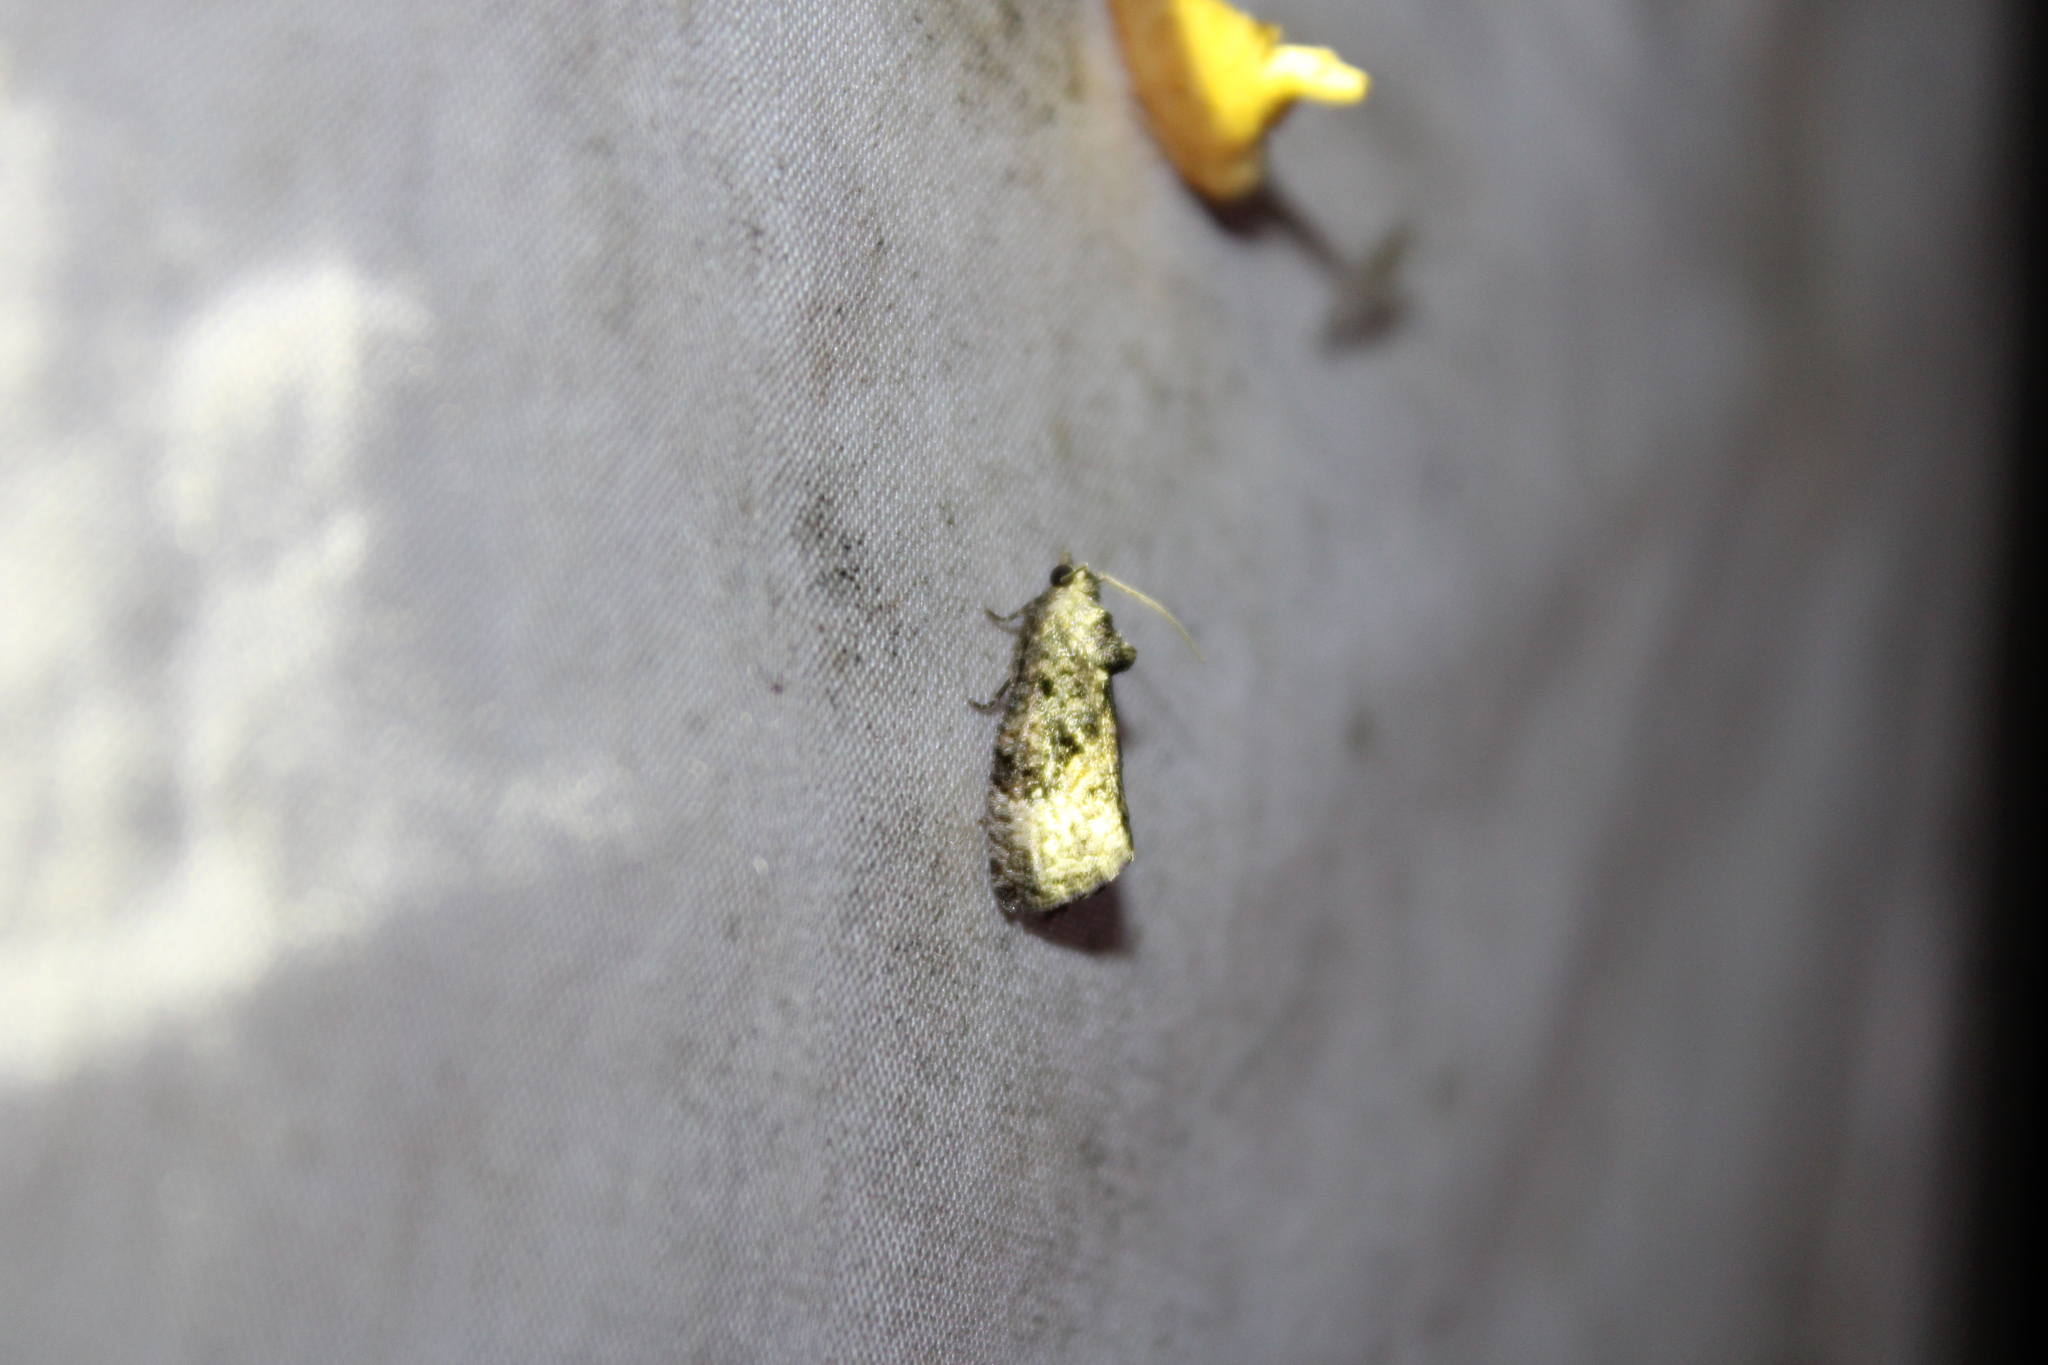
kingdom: Animalia
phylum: Arthropoda
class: Insecta
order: Lepidoptera
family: Tortricidae
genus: Gymnandrosoma
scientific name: Gymnandrosoma punctidiscanum
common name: Dotted ecdytolopha moth
